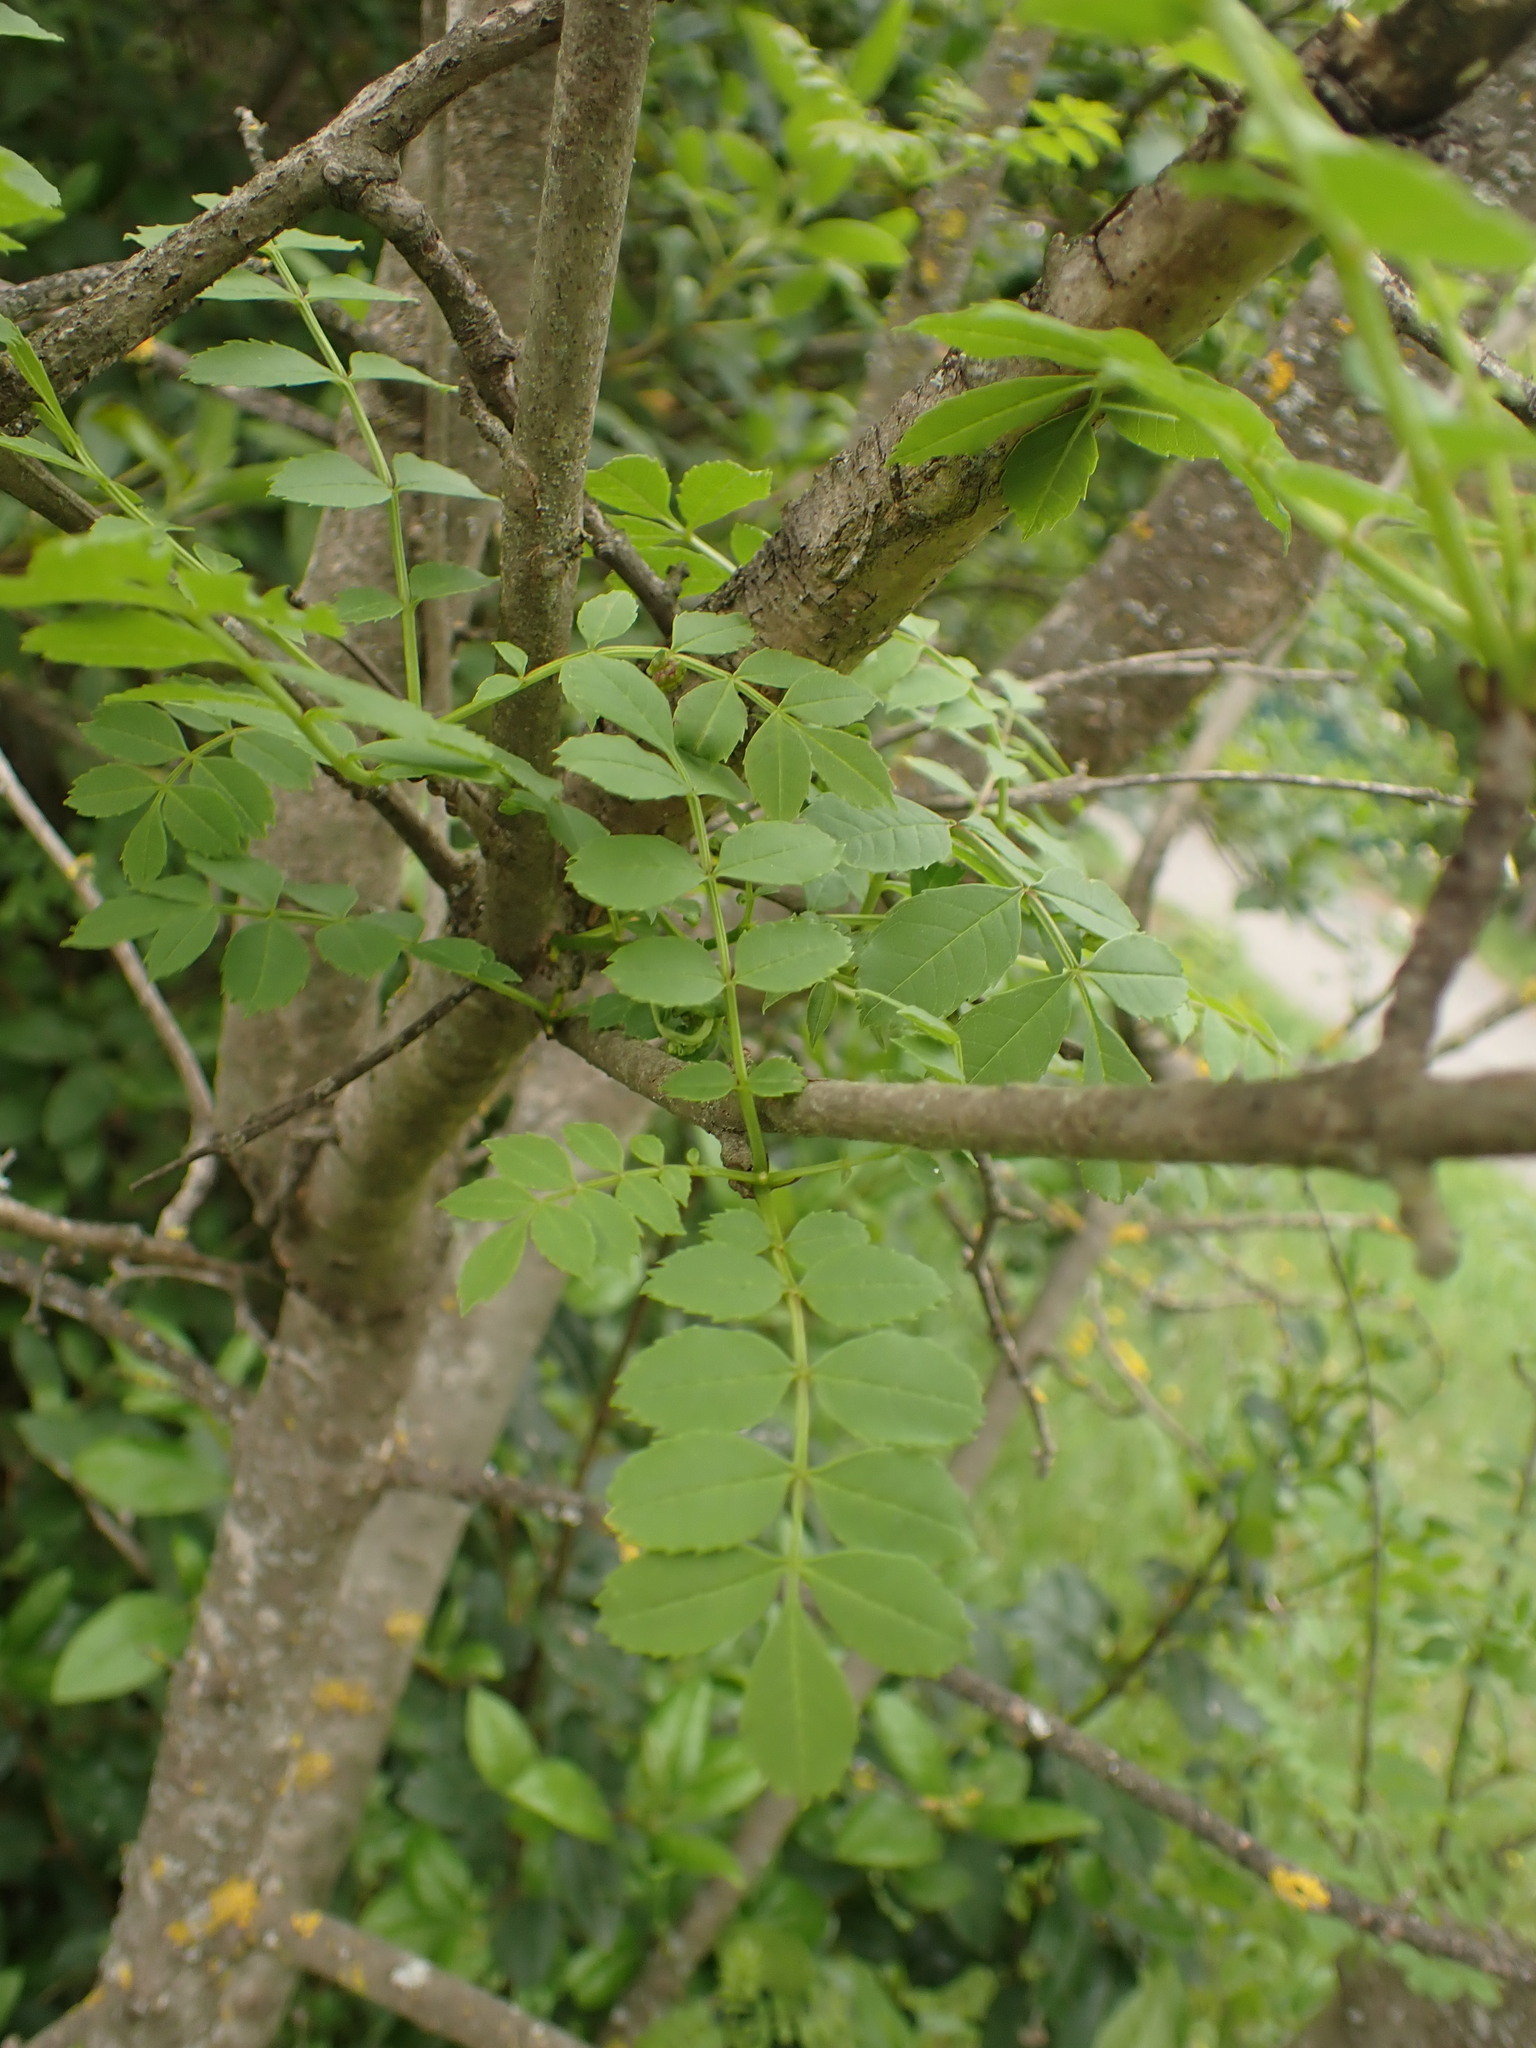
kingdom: Plantae
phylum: Tracheophyta
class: Magnoliopsida
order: Lamiales
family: Oleaceae
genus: Fraxinus
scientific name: Fraxinus angustifolia
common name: Narrow-leafed ash
